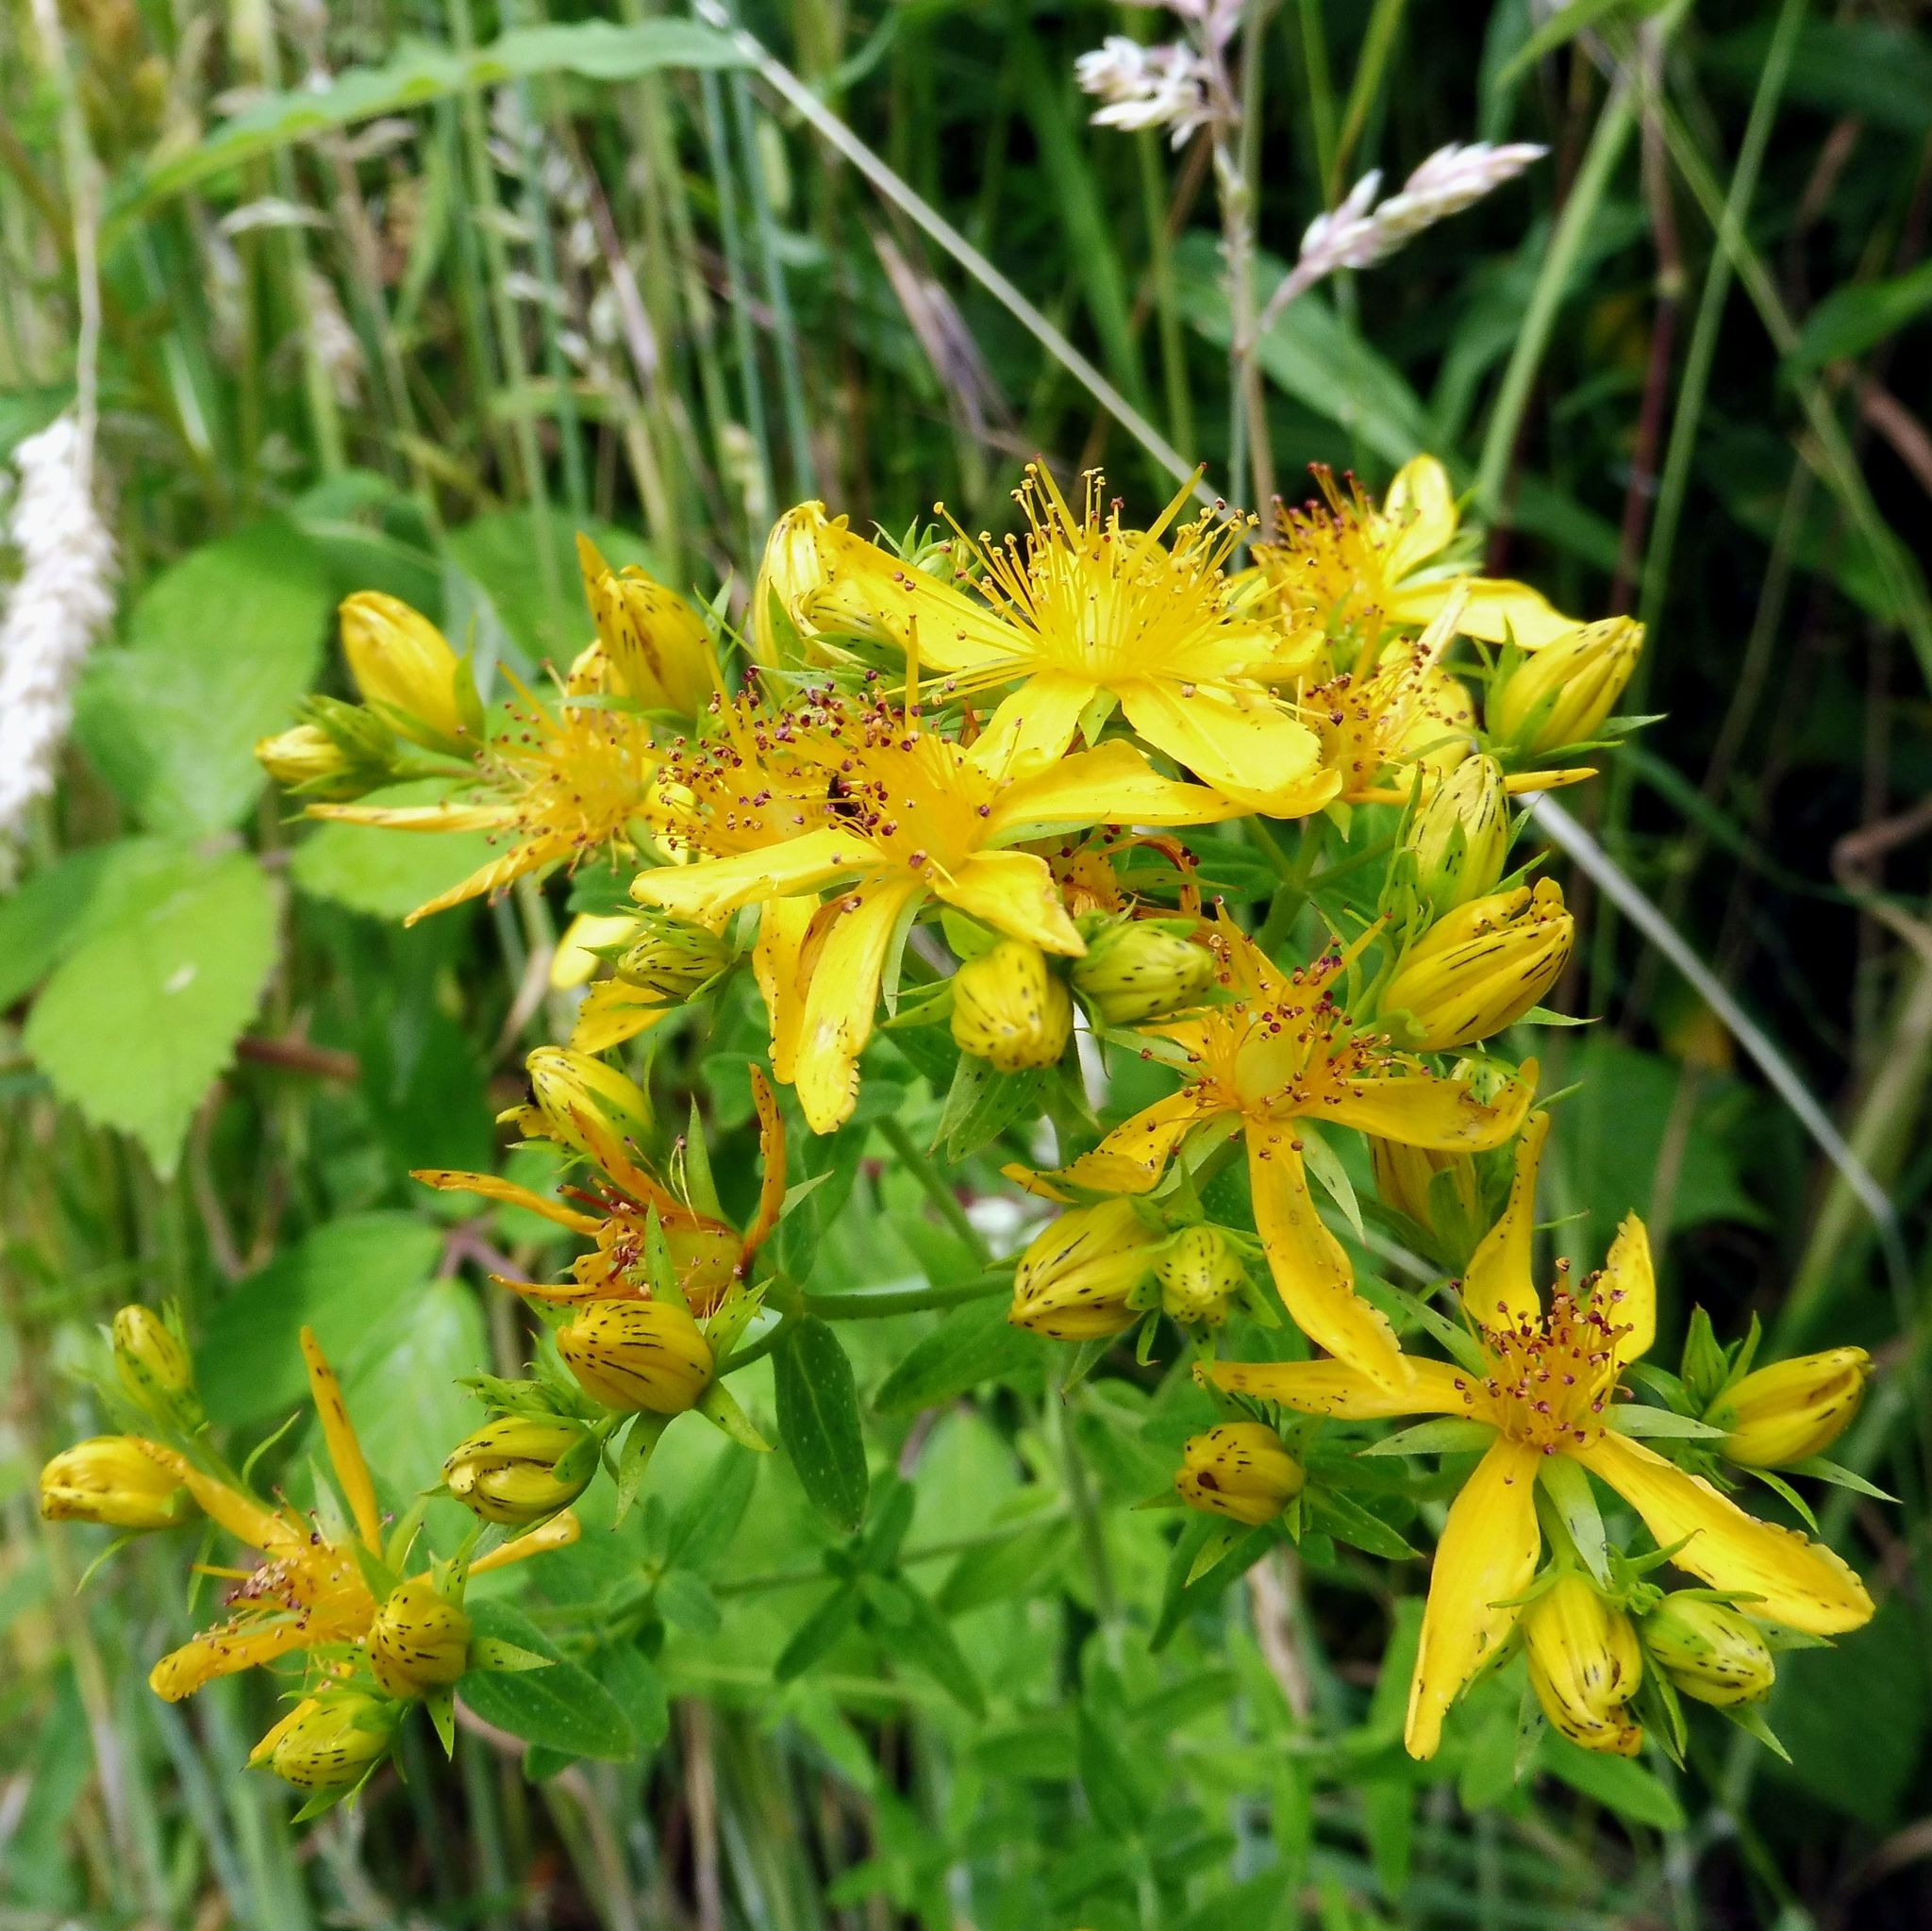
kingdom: Plantae
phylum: Tracheophyta
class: Magnoliopsida
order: Malpighiales
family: Hypericaceae
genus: Hypericum
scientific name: Hypericum perforatum
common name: Common st. johnswort
